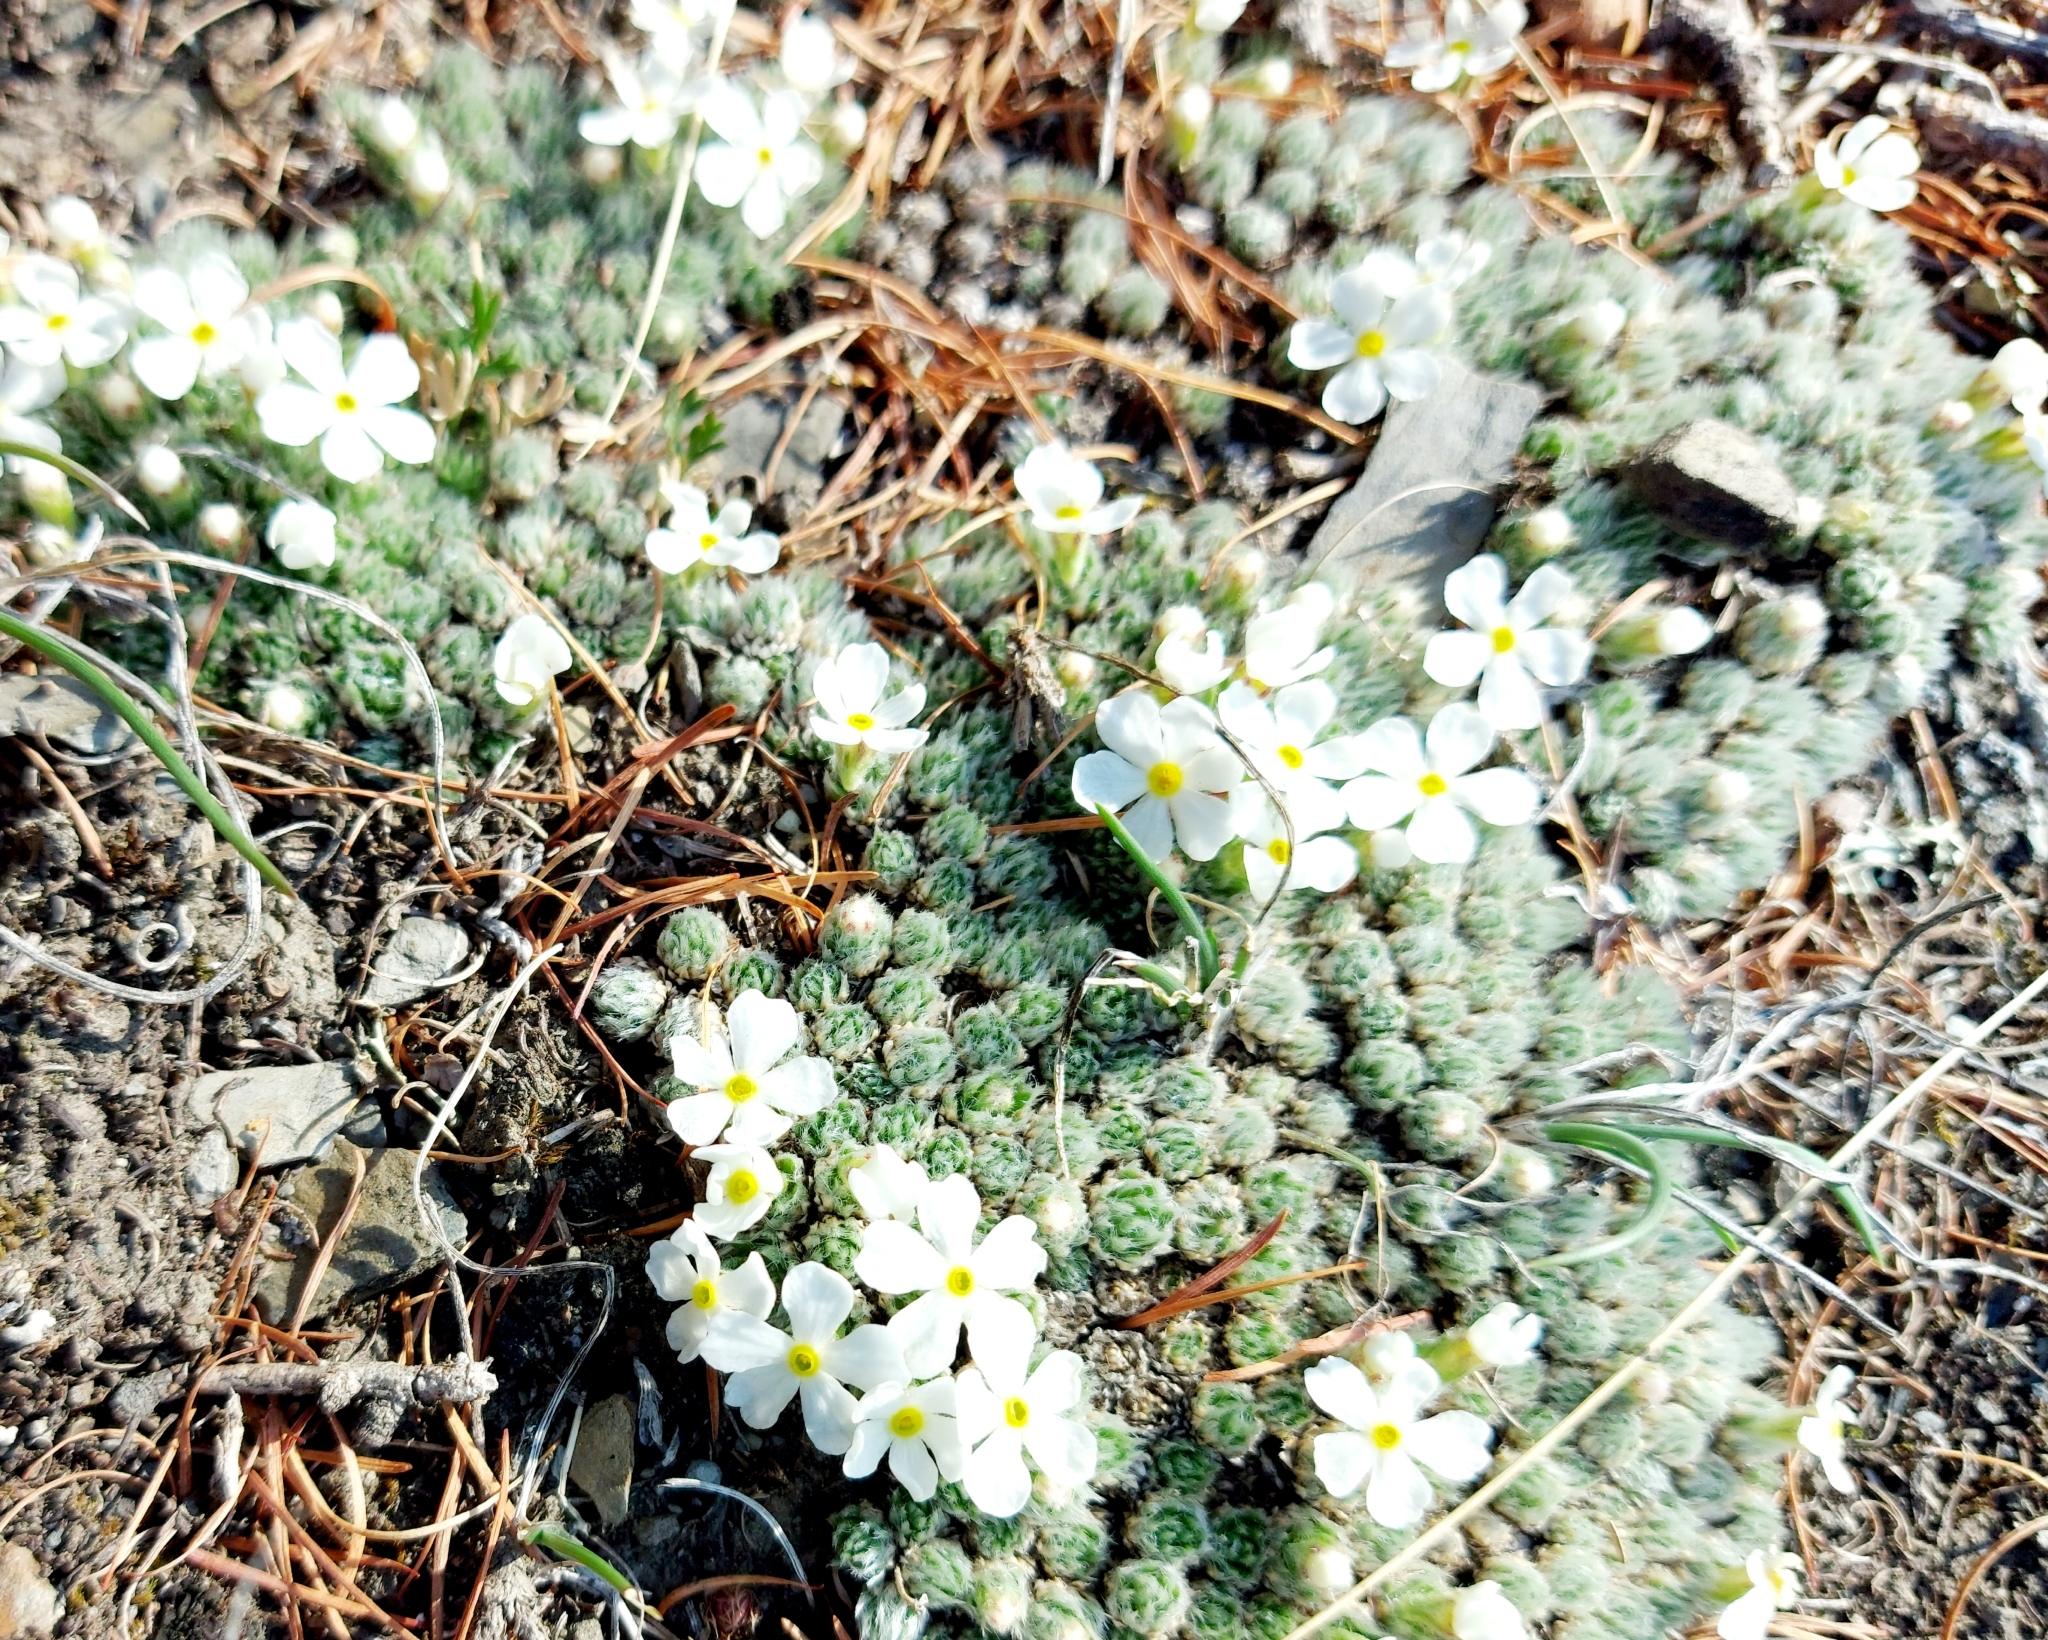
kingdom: Plantae
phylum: Tracheophyta
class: Magnoliopsida
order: Ericales
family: Primulaceae
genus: Androsace
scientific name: Androsace incana
